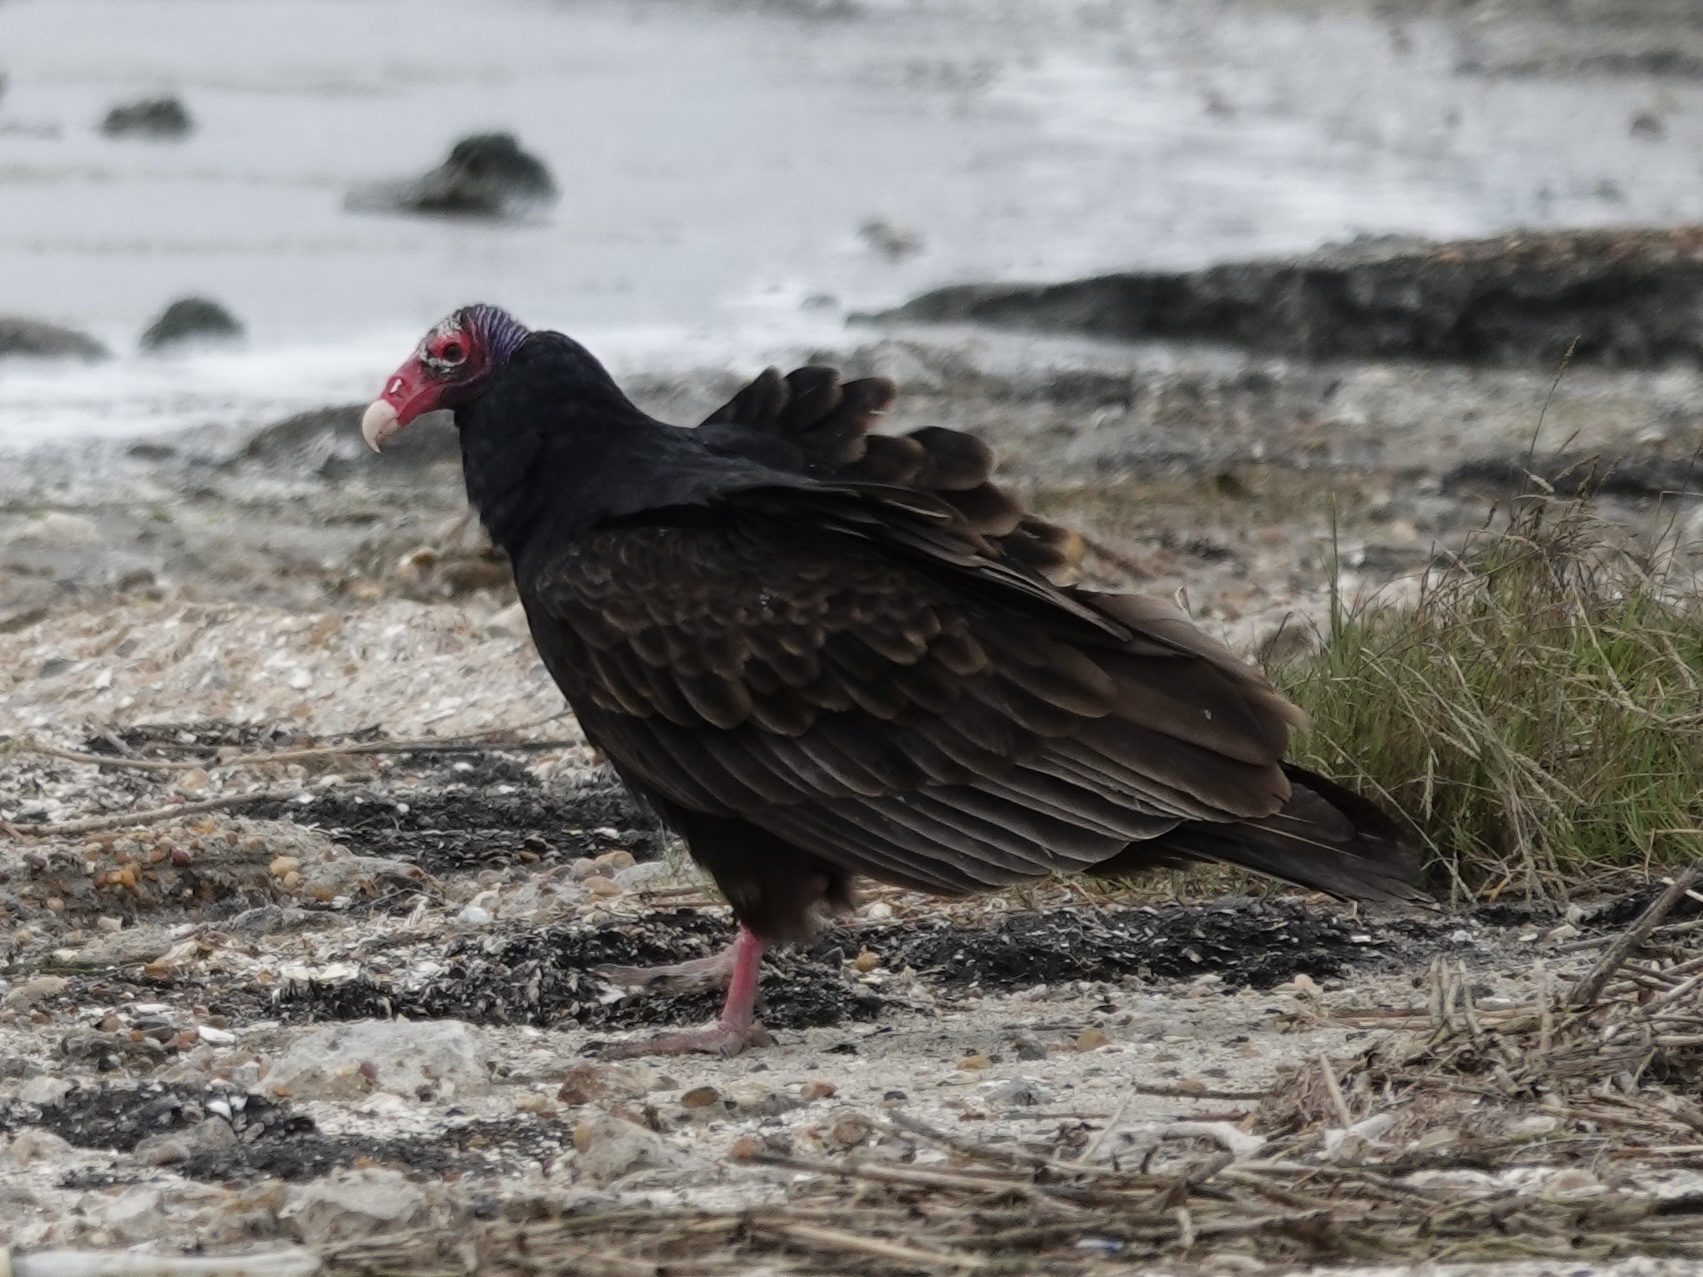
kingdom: Animalia
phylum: Chordata
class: Aves
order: Accipitriformes
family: Cathartidae
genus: Cathartes
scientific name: Cathartes aura
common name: Turkey vulture
